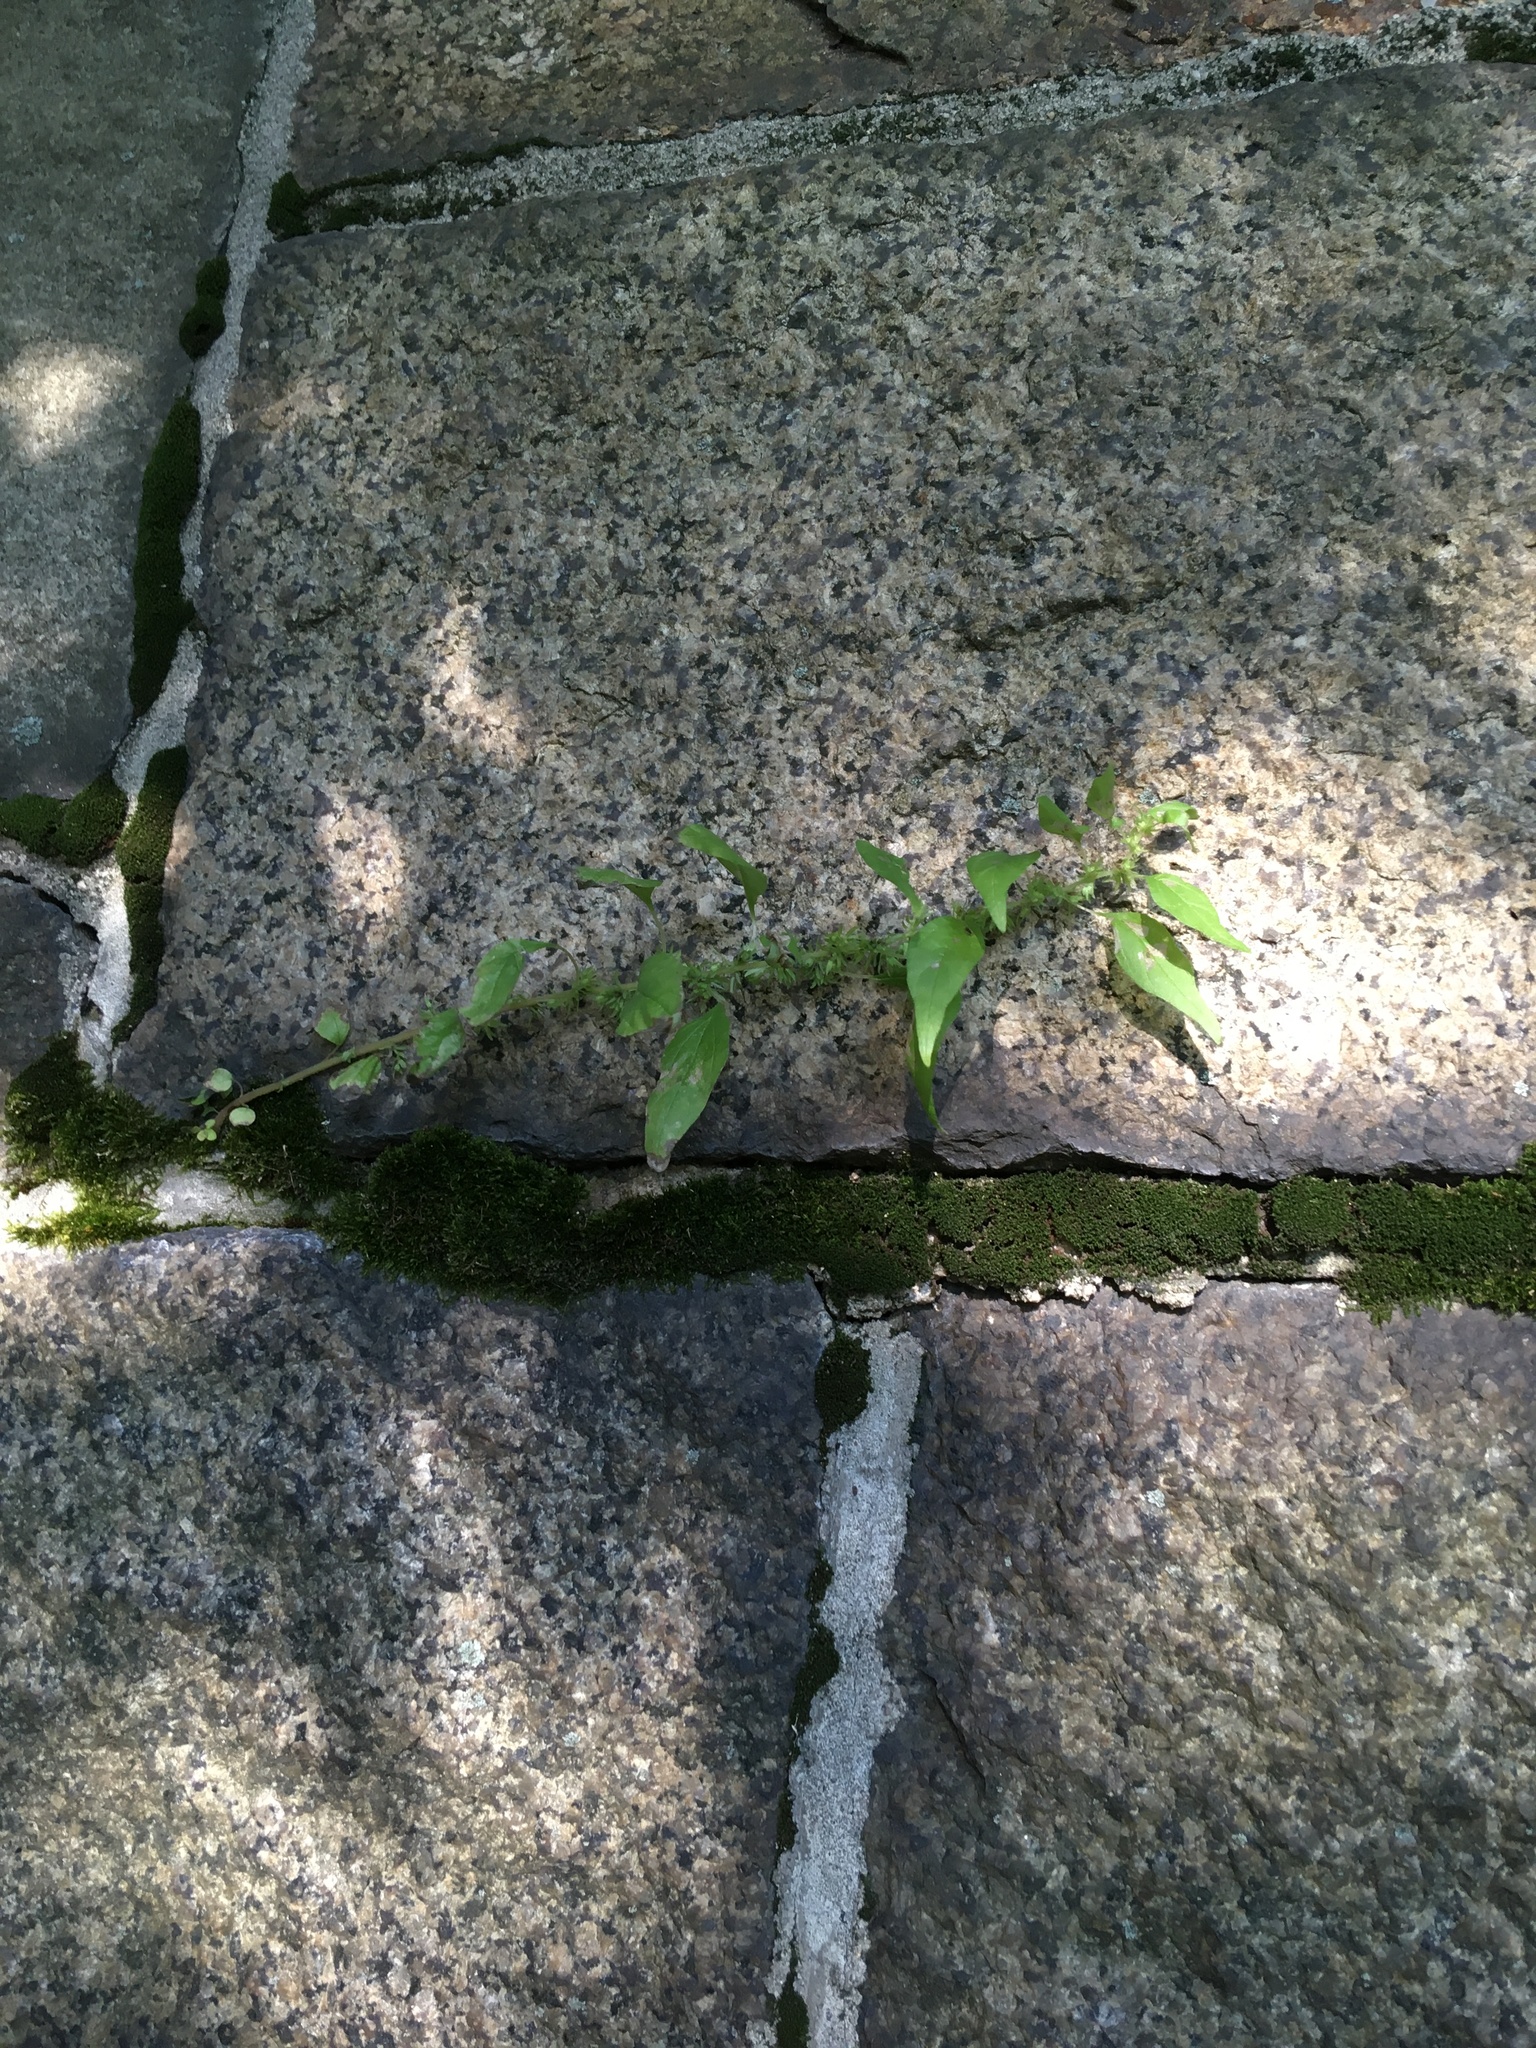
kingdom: Plantae
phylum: Tracheophyta
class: Magnoliopsida
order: Rosales
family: Urticaceae
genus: Parietaria
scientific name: Parietaria pensylvanica
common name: Pennsylvania pellitory
